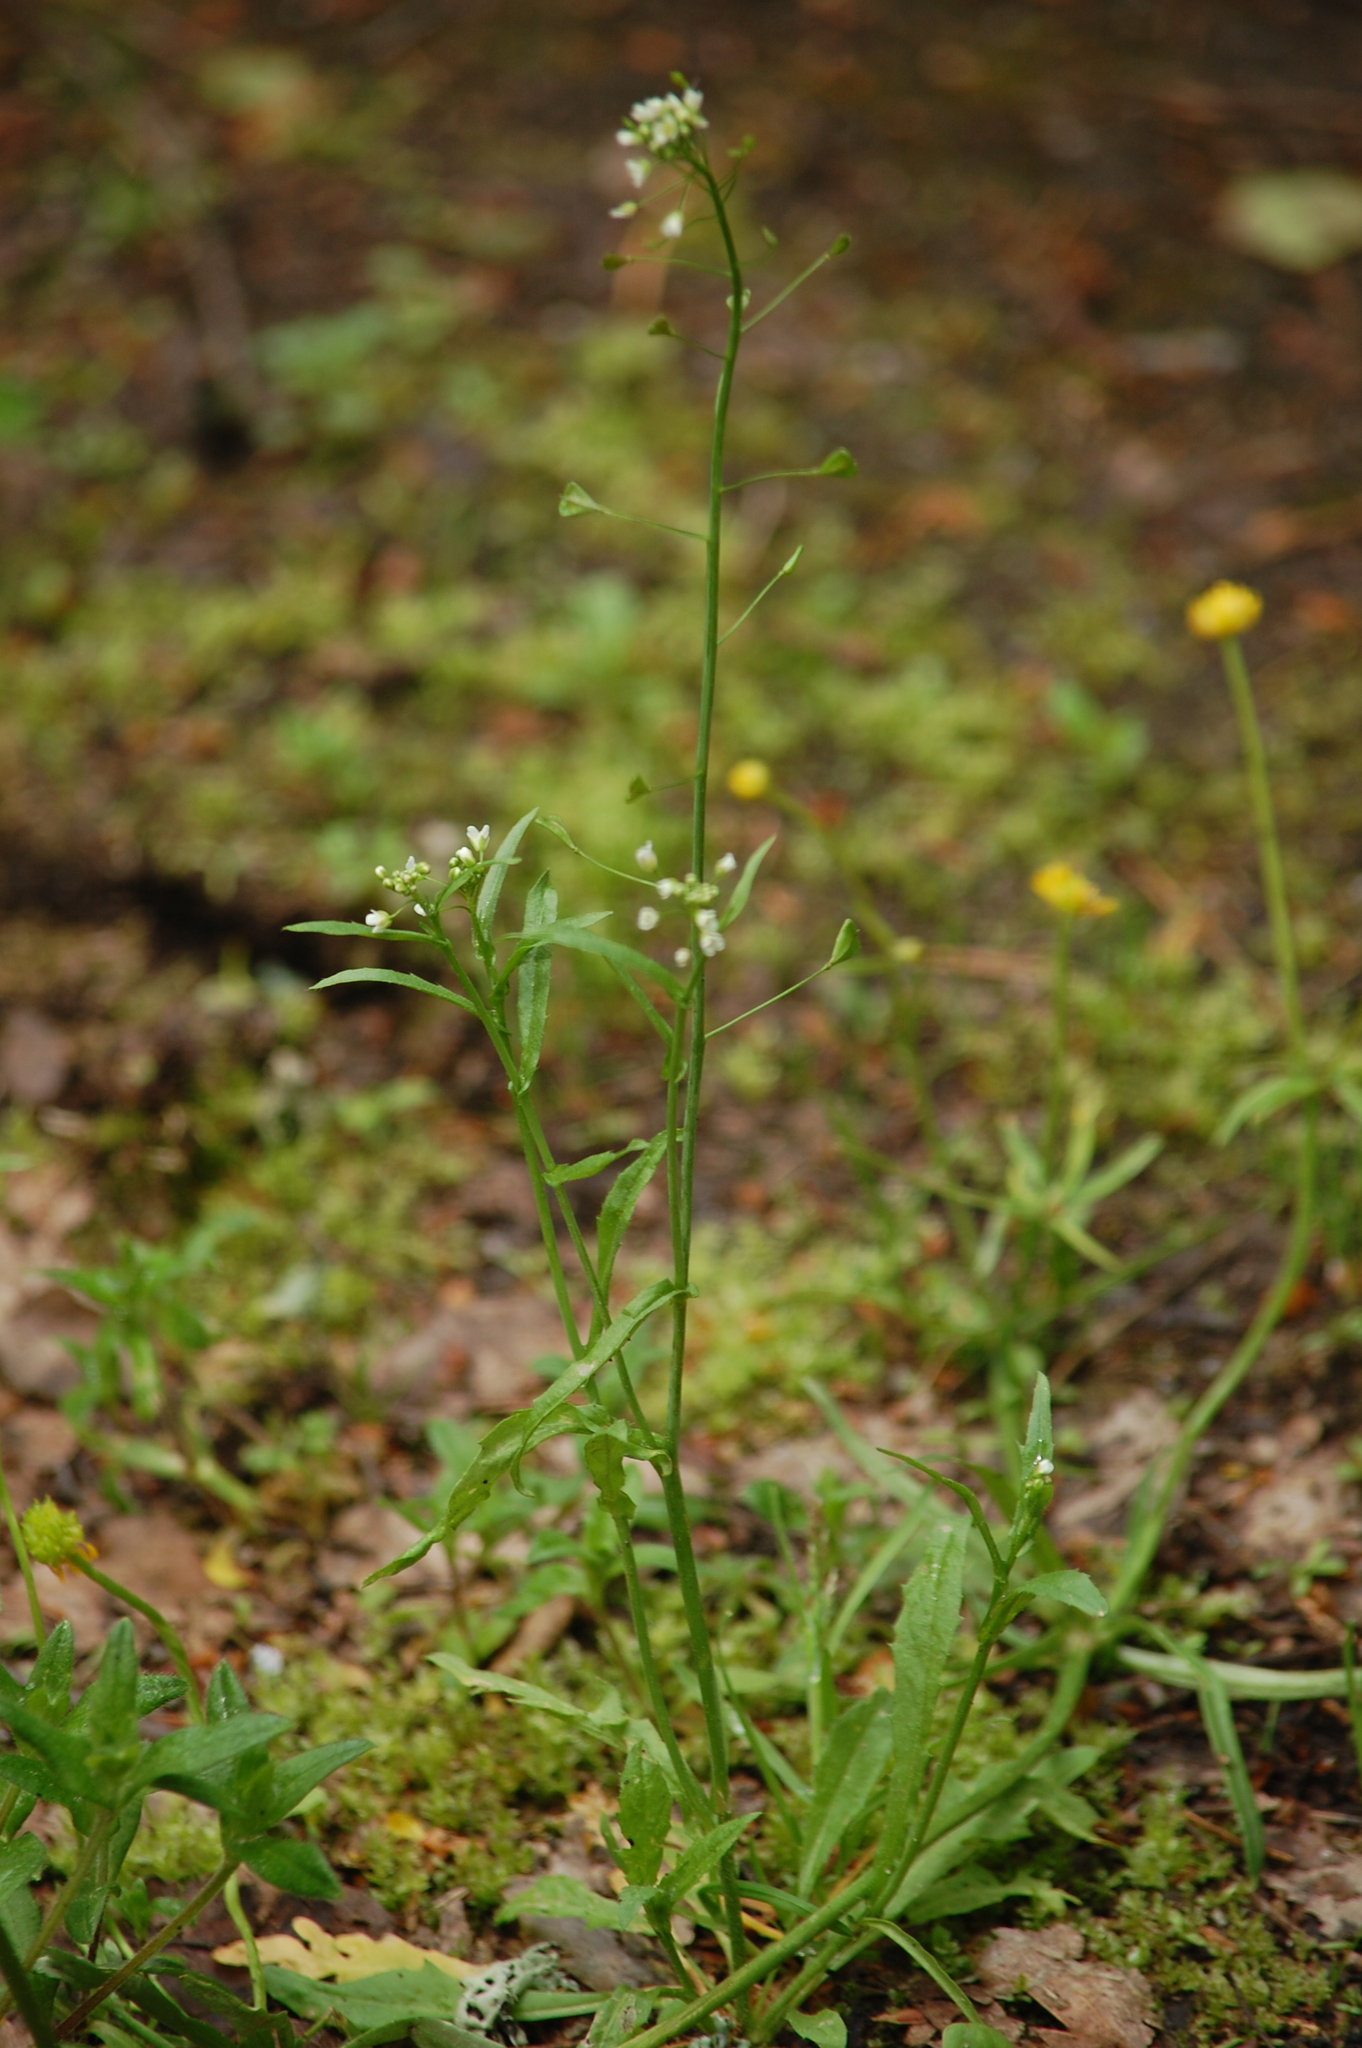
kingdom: Plantae
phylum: Tracheophyta
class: Magnoliopsida
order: Brassicales
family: Brassicaceae
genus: Capsella
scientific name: Capsella bursa-pastoris
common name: Shepherd's purse
